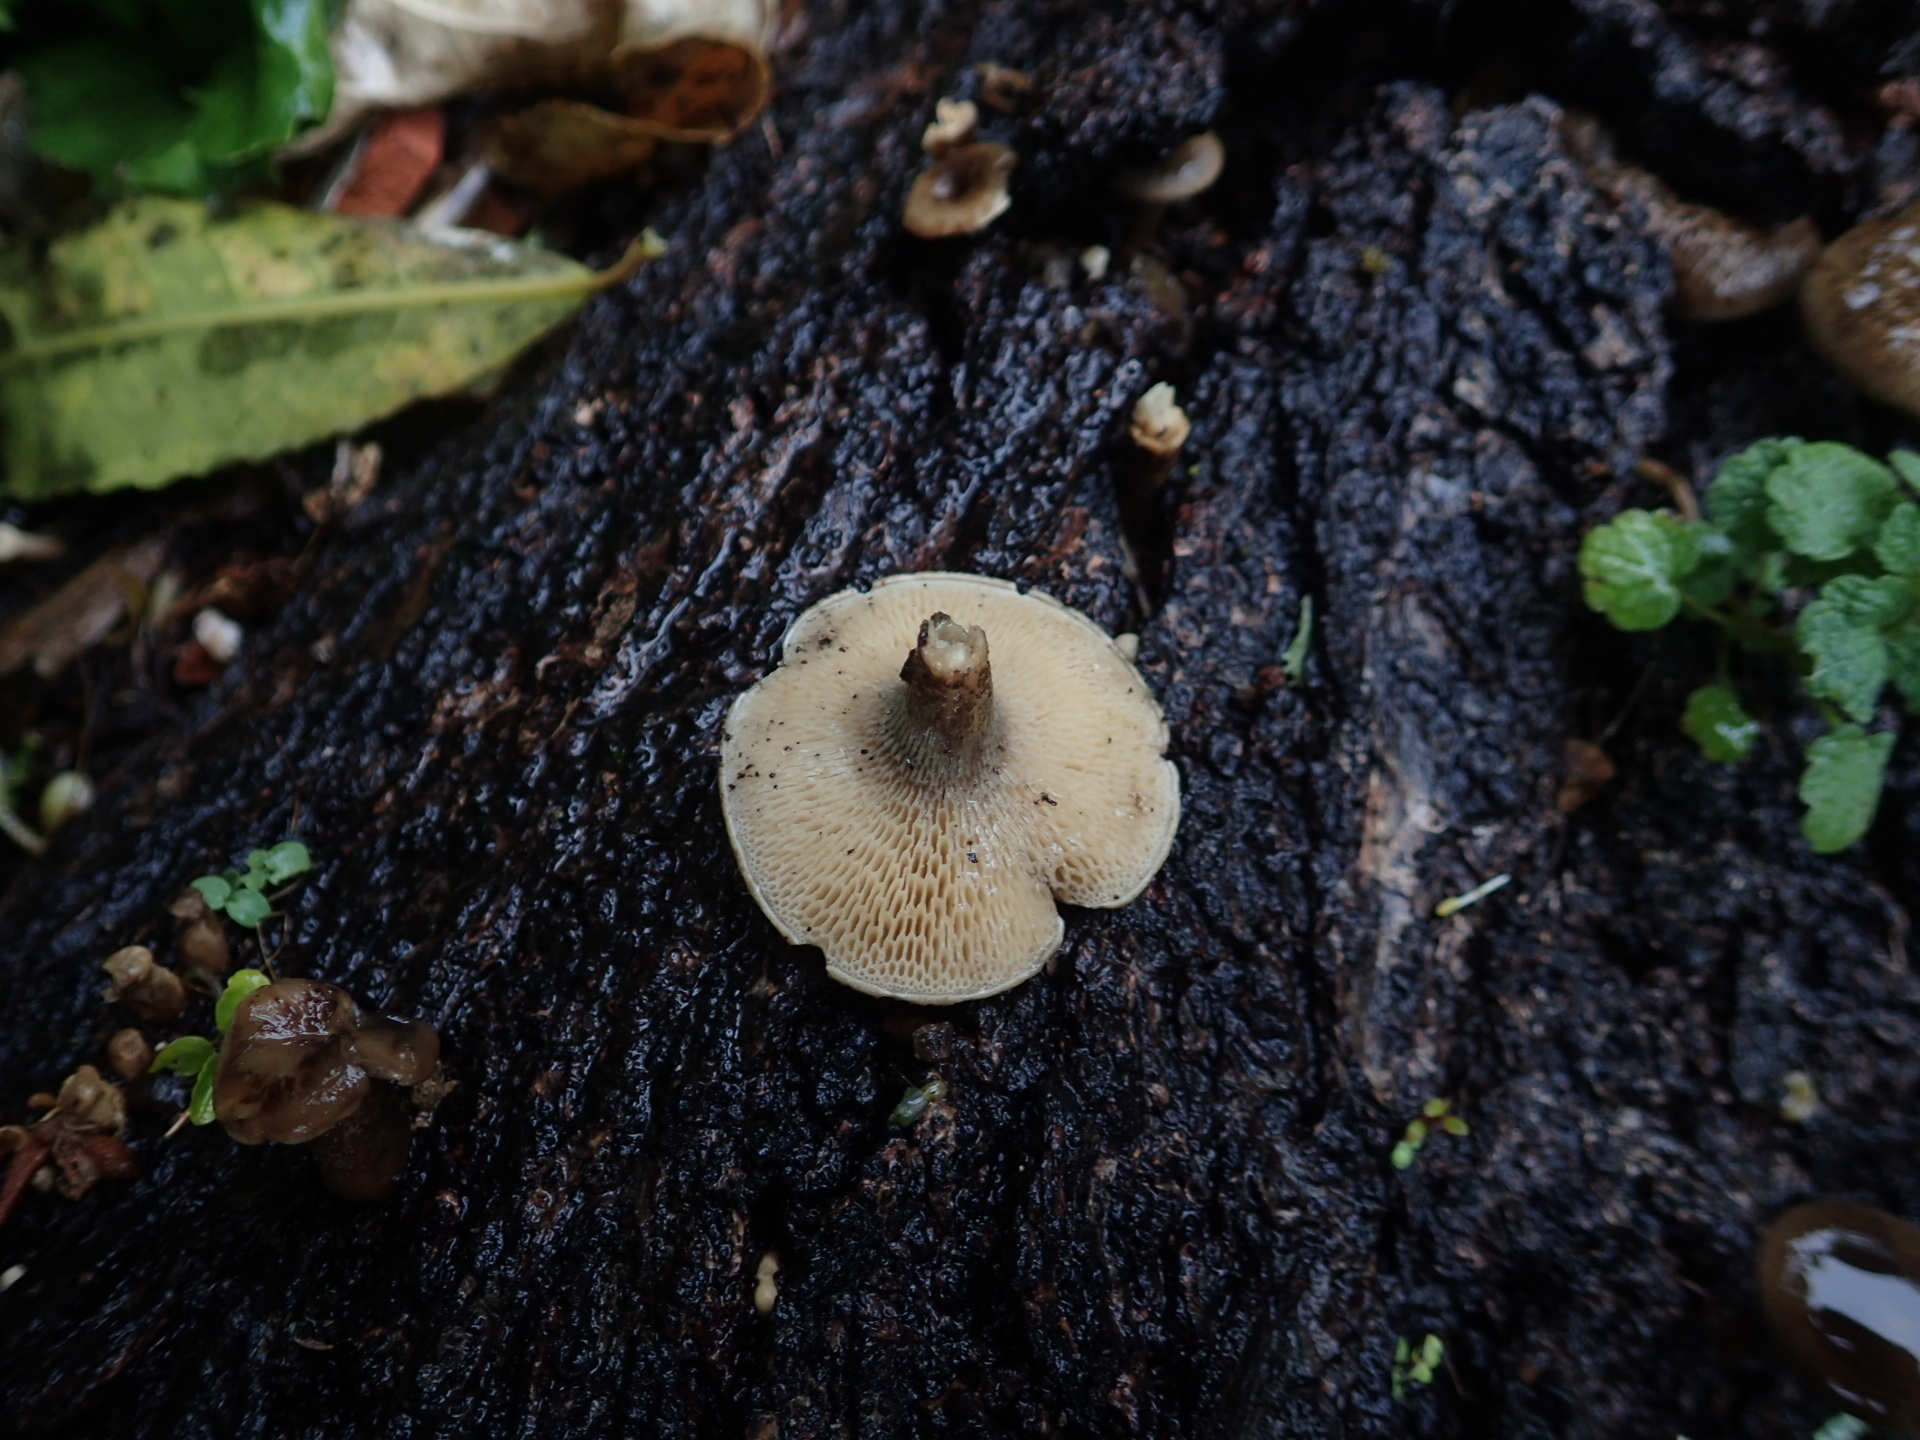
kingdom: Fungi
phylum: Basidiomycota
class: Agaricomycetes
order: Polyporales
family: Polyporaceae
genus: Lentinus
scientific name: Lentinus arcularius
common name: Spring polypore
